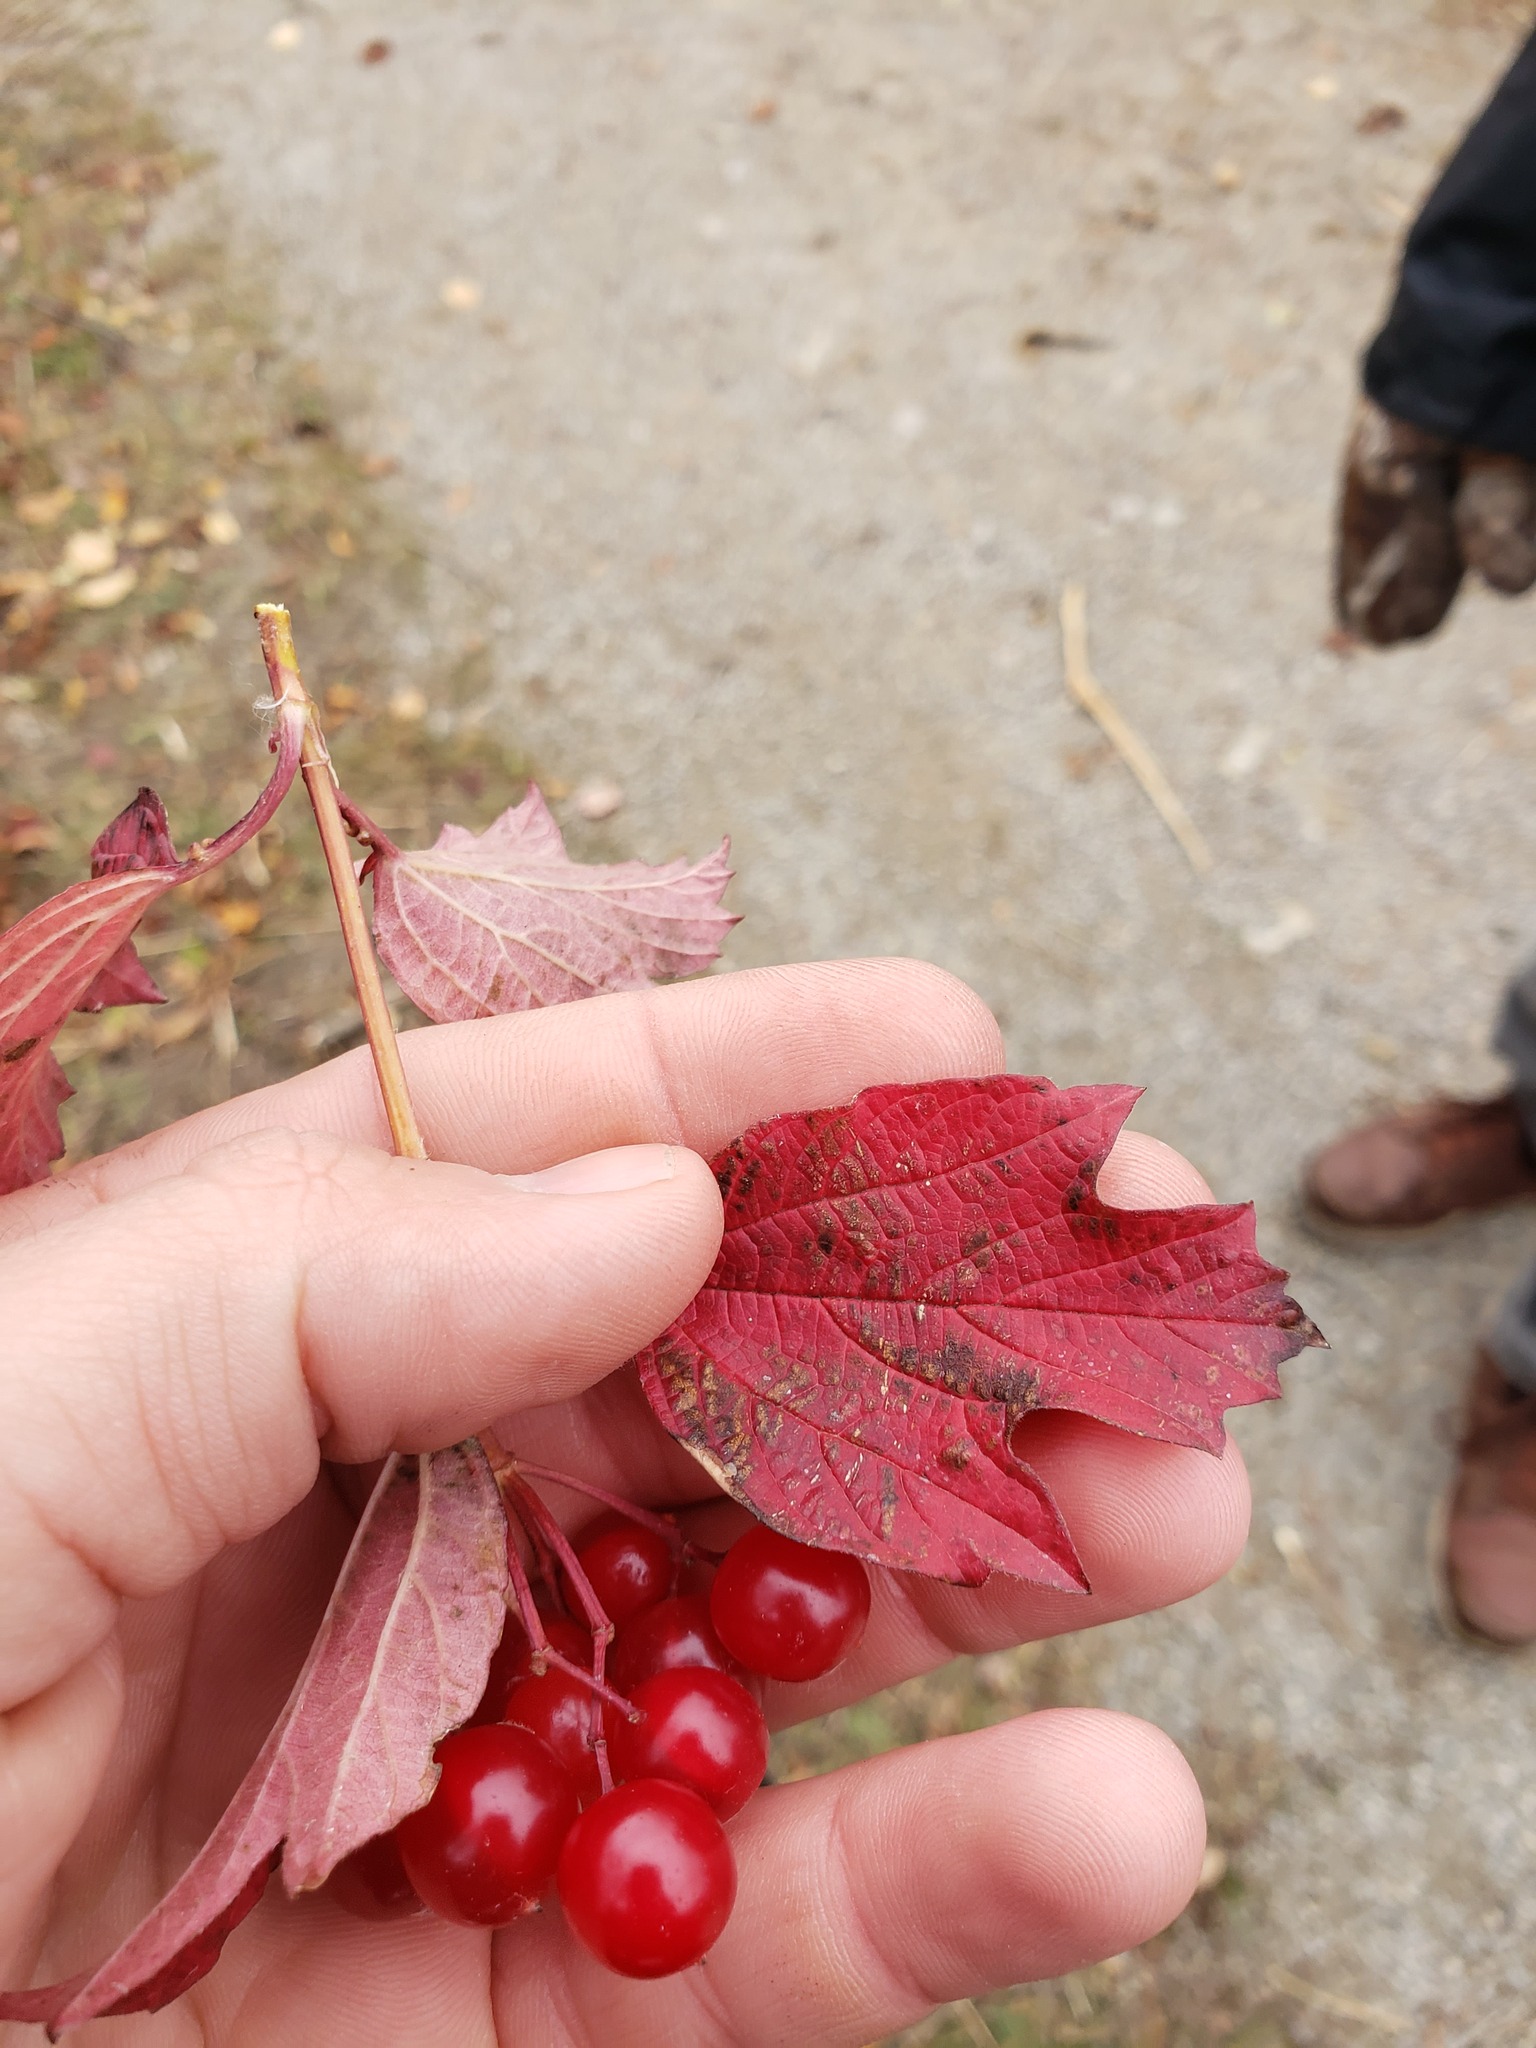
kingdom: Plantae
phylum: Tracheophyta
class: Magnoliopsida
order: Dipsacales
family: Viburnaceae
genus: Viburnum
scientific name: Viburnum opulus
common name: Guelder-rose
